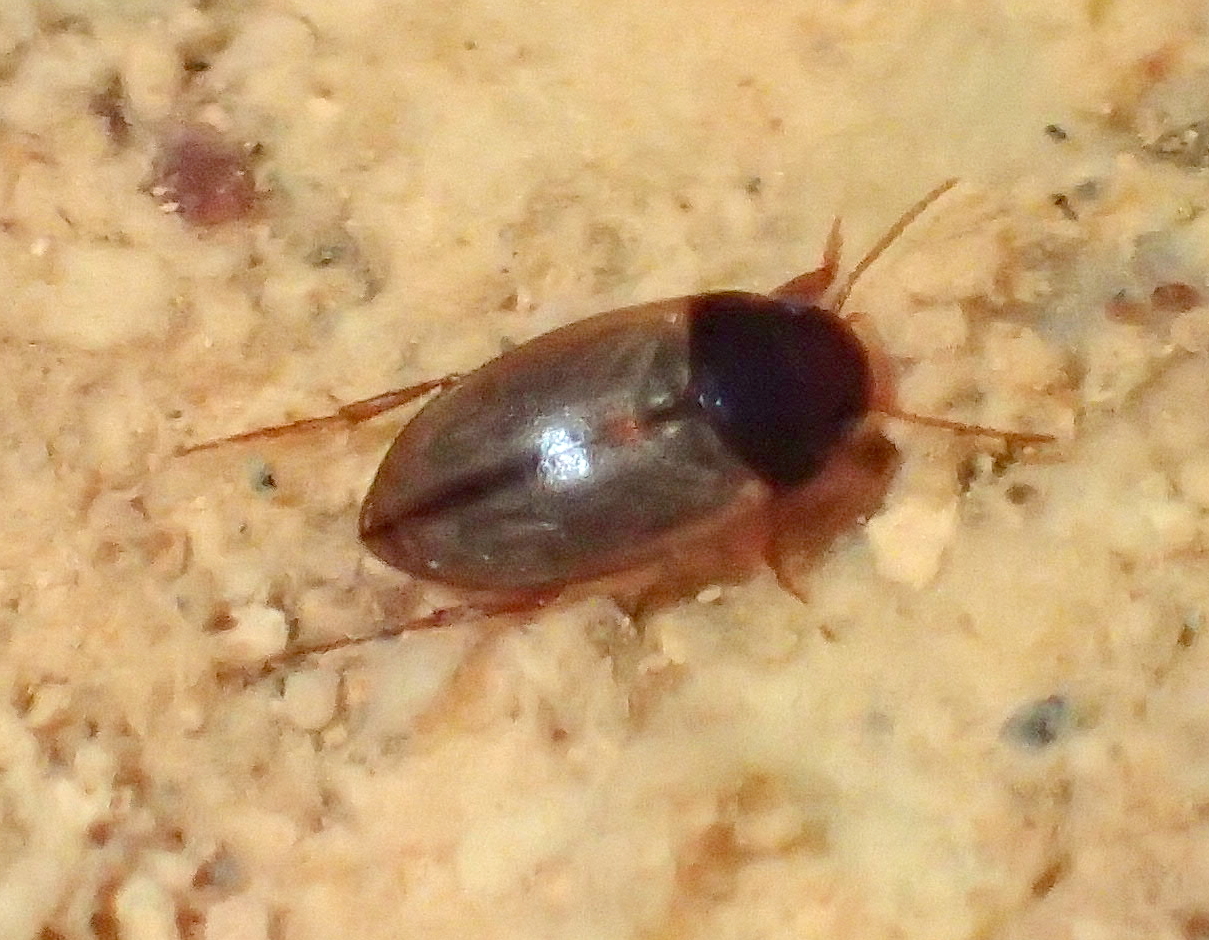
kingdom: Animalia
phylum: Arthropoda
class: Insecta
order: Coleoptera
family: Dytiscidae
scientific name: Dytiscidae
